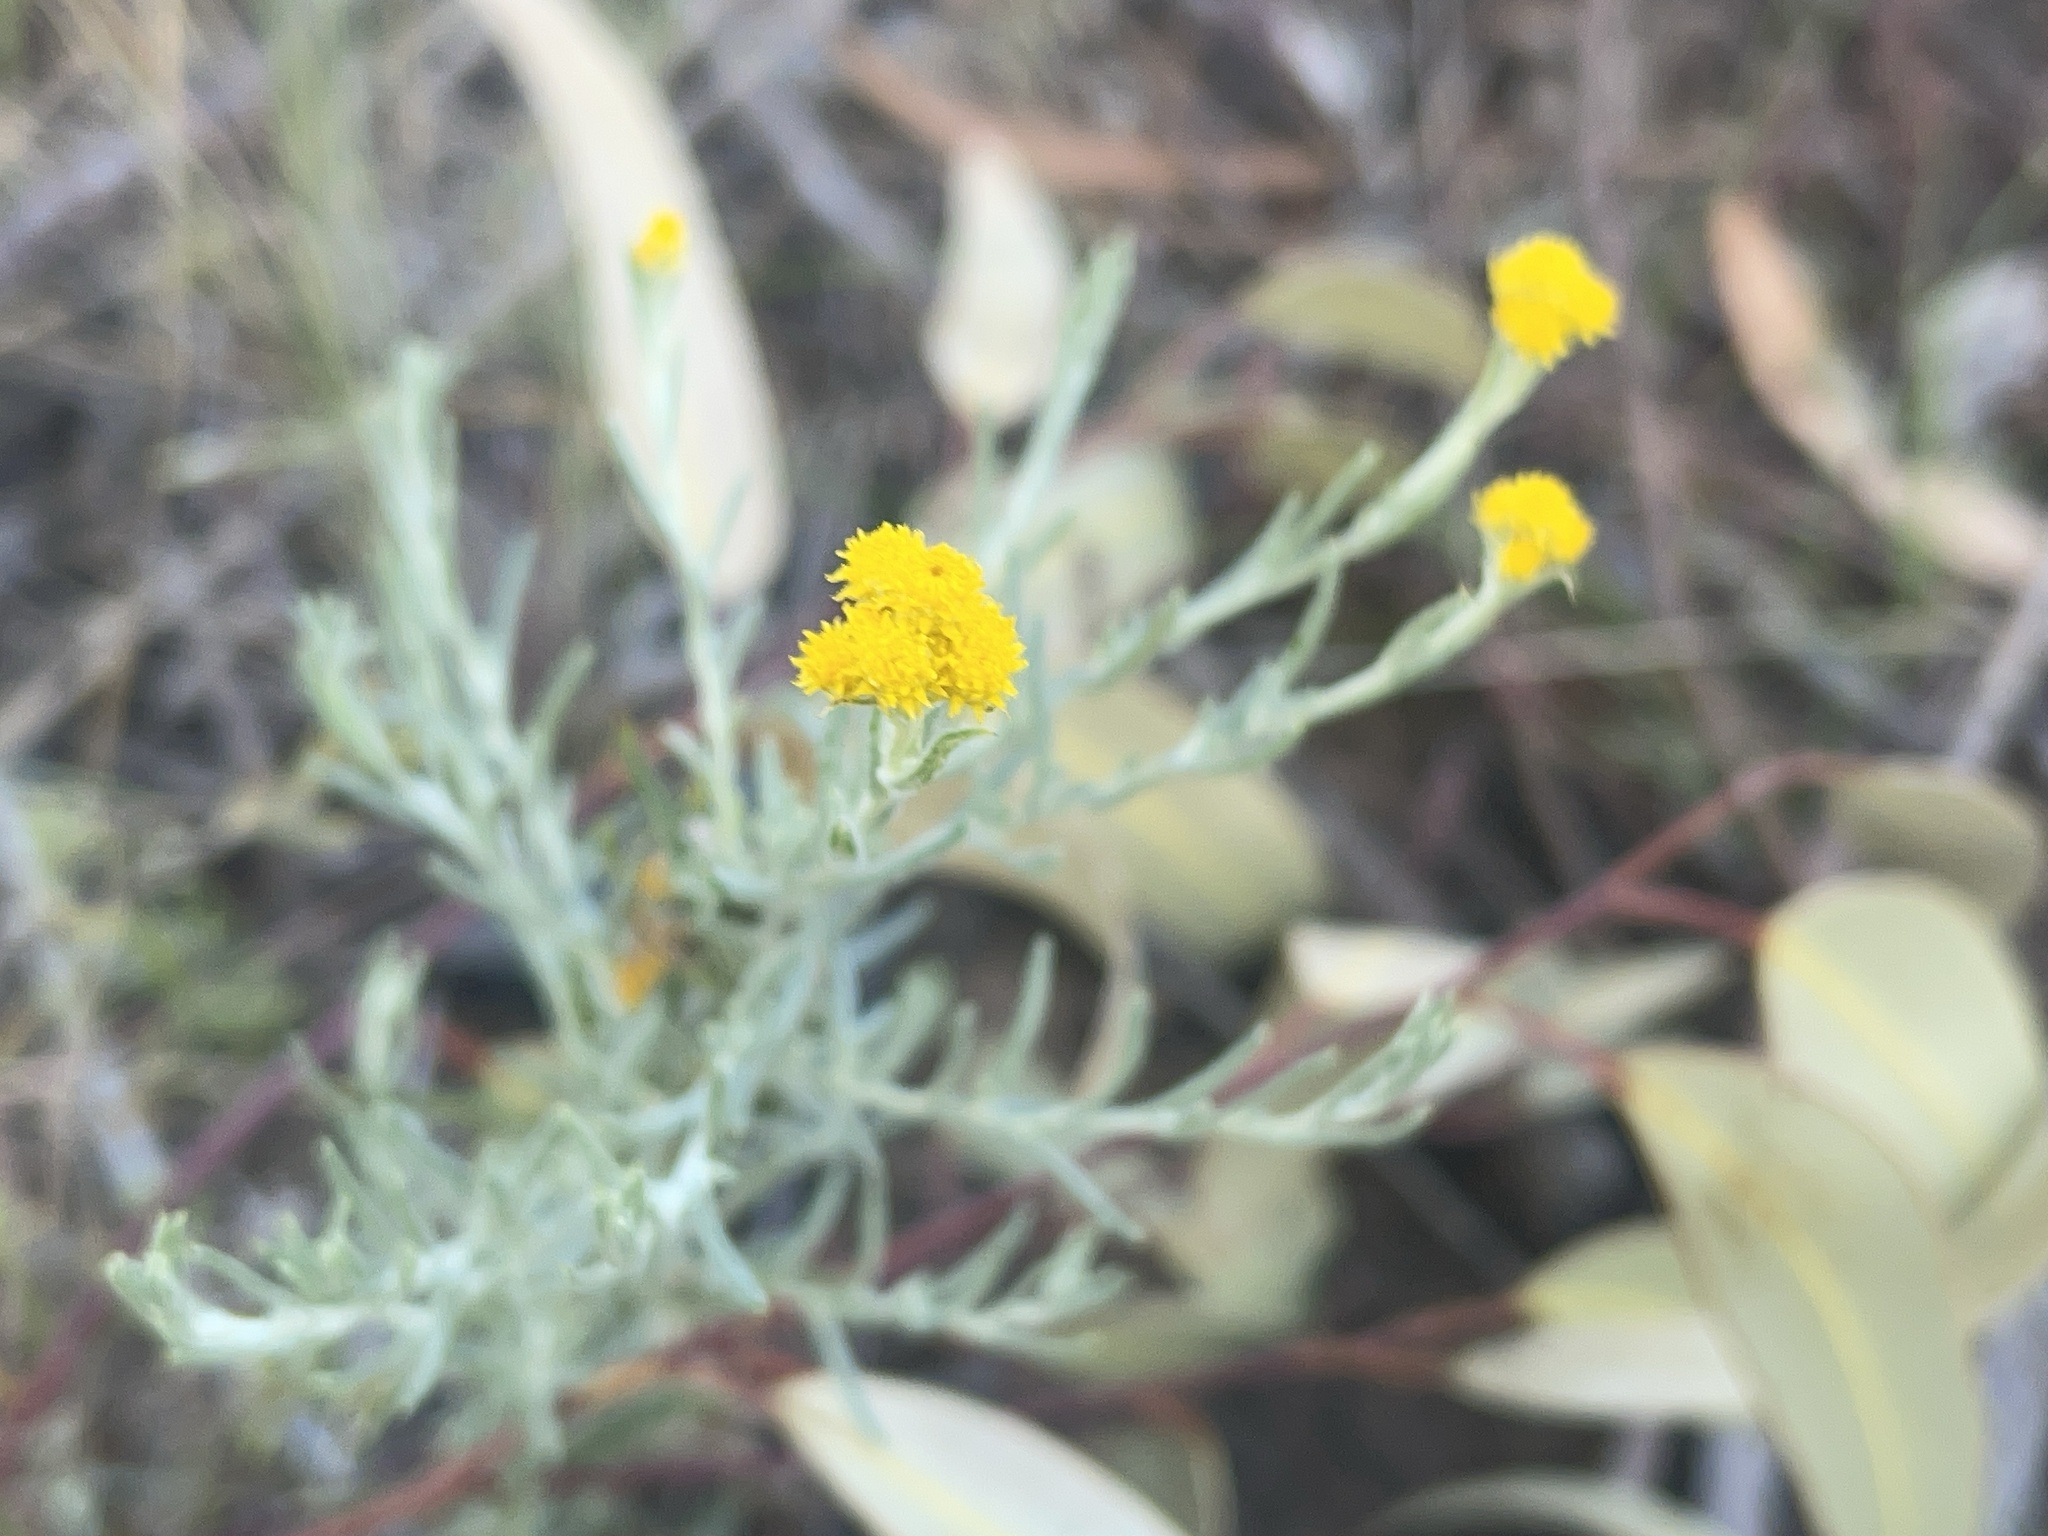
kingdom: Plantae
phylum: Tracheophyta
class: Magnoliopsida
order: Asterales
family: Asteraceae
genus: Chrysocephalum
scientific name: Chrysocephalum semipapposum
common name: Clustered everlasting
